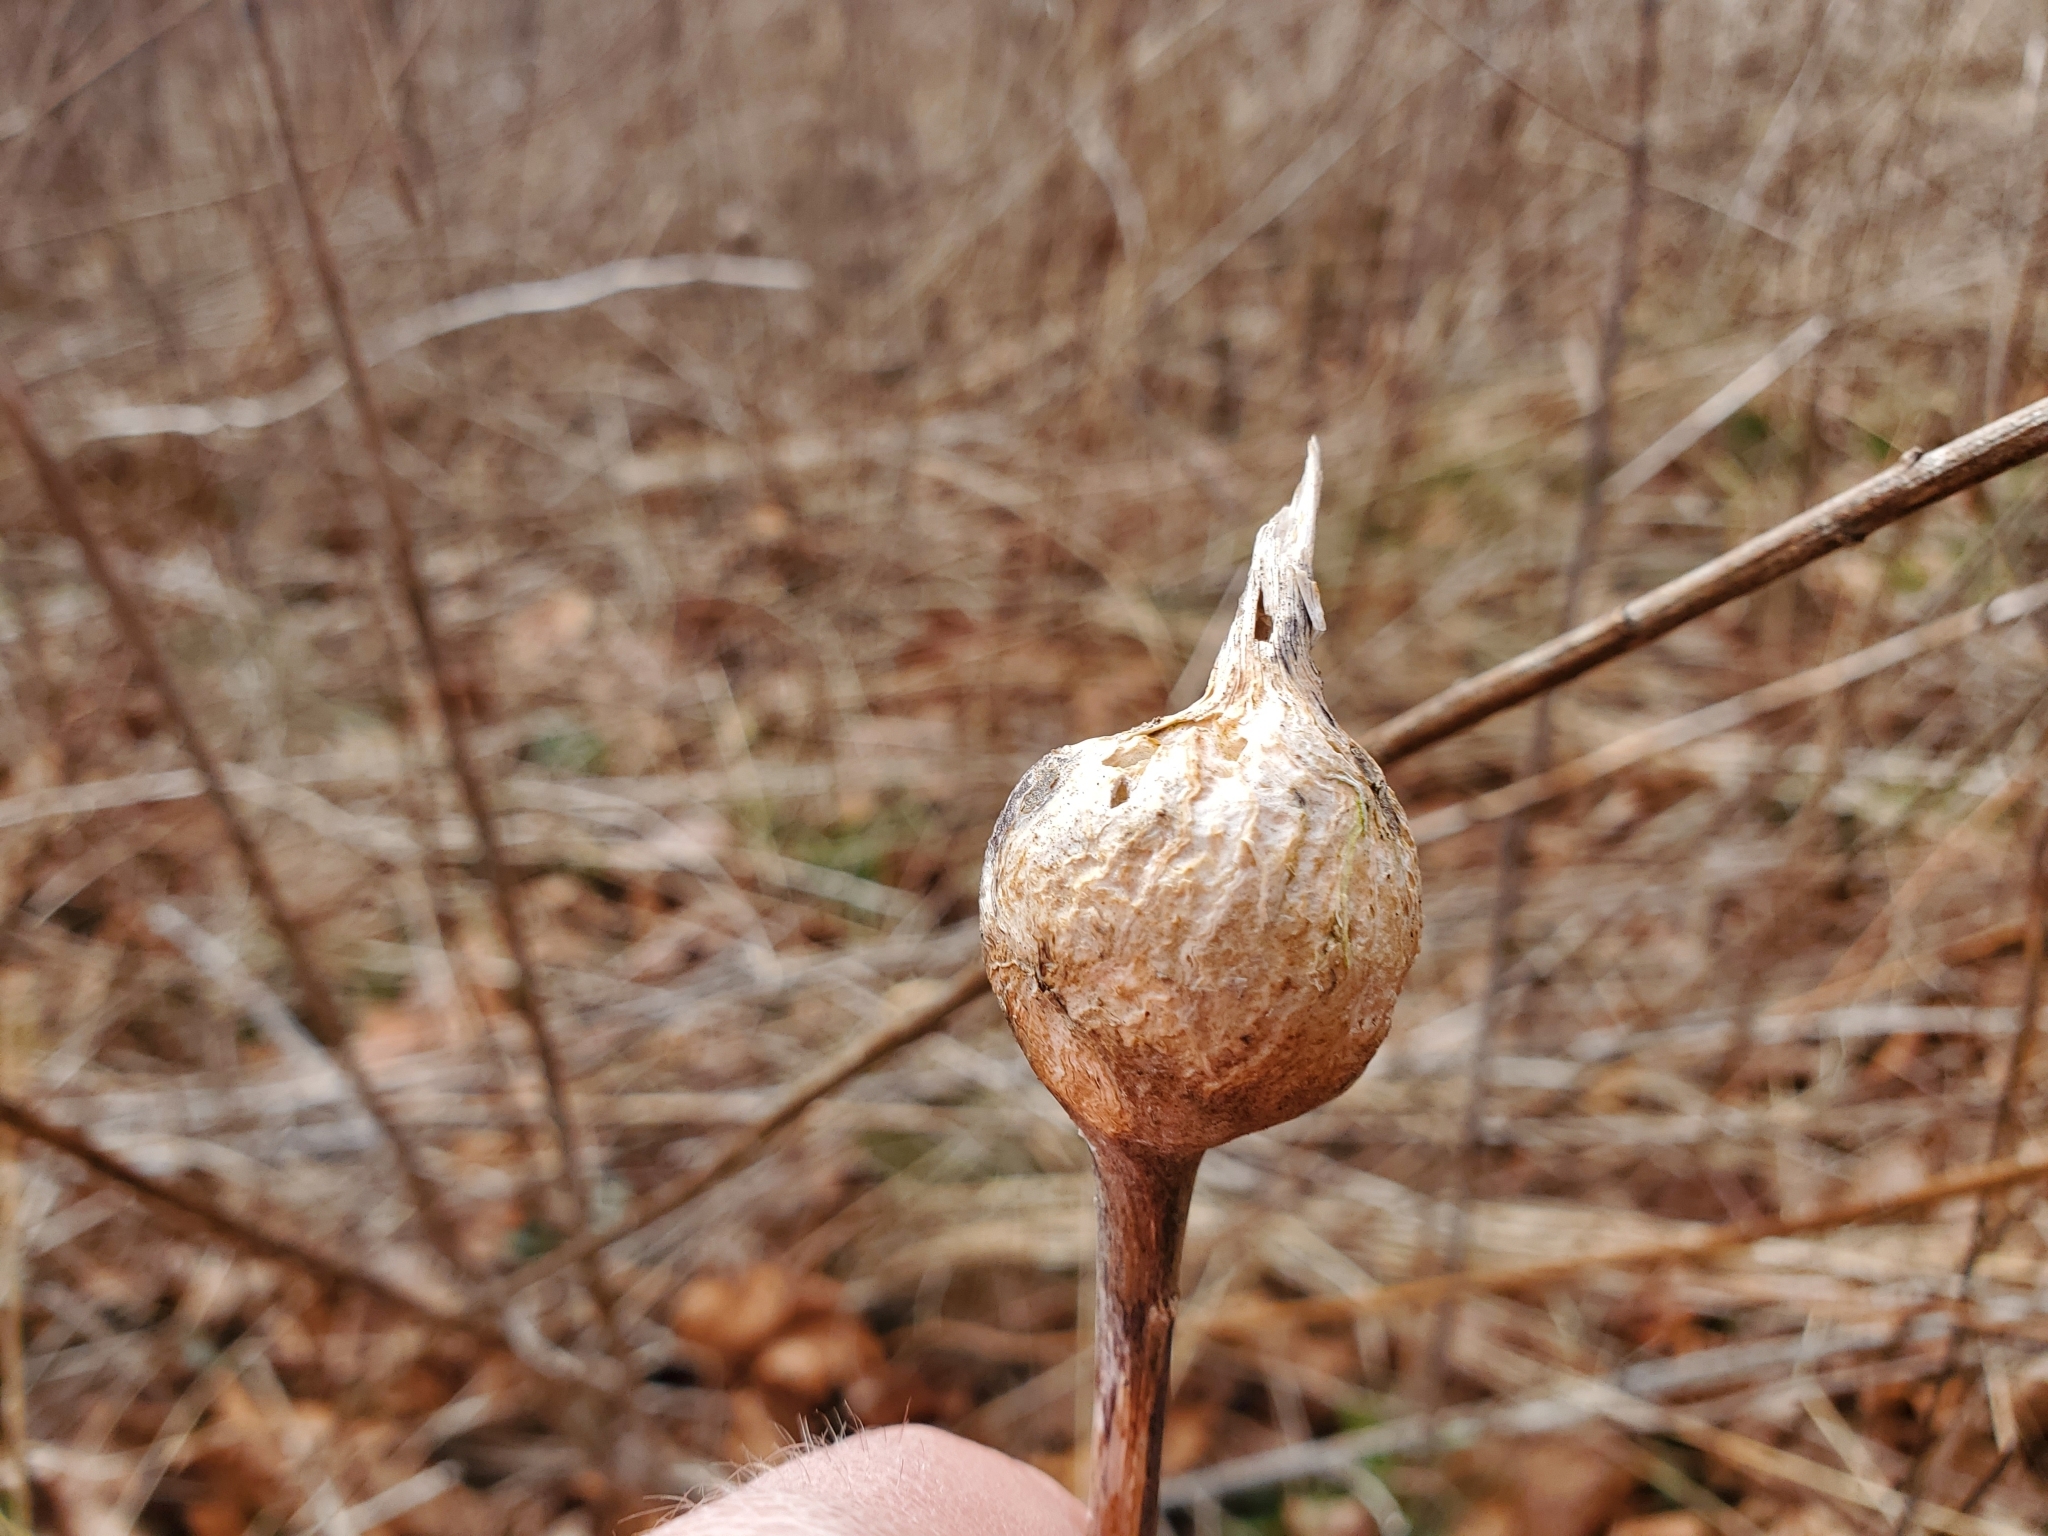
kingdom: Animalia
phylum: Arthropoda
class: Insecta
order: Diptera
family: Tephritidae
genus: Eurosta
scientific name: Eurosta solidaginis
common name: Goldenrod gall fly
